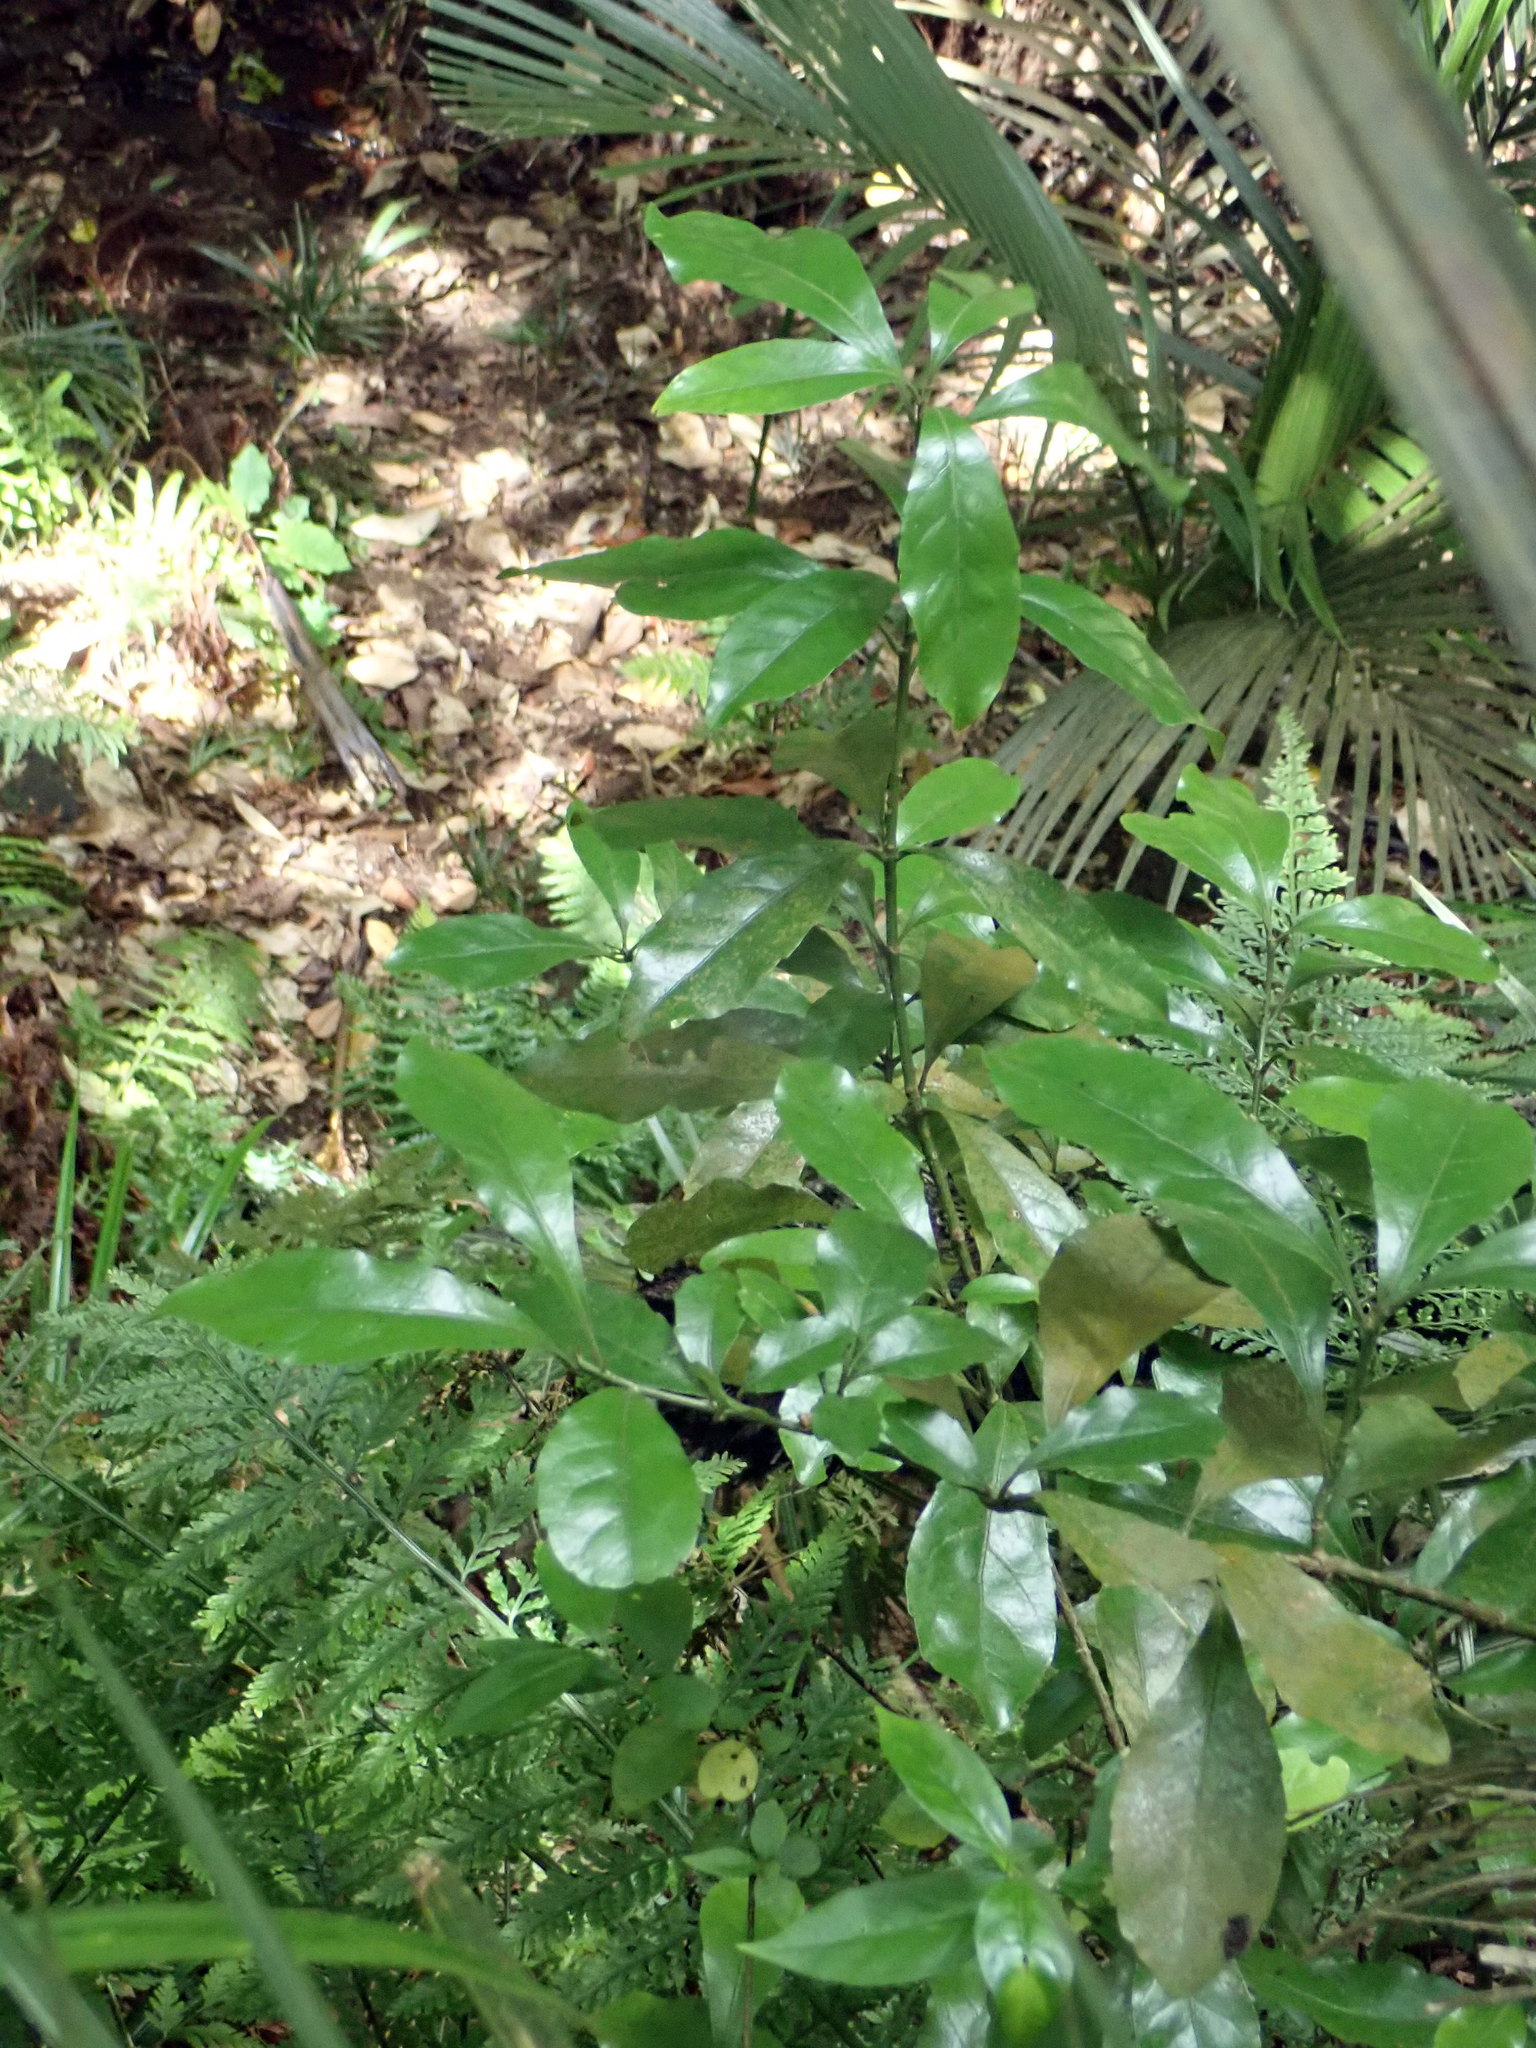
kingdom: Plantae
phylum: Tracheophyta
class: Magnoliopsida
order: Asterales
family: Alseuosmiaceae
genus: Alseuosmia
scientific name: Alseuosmia macrophylla
